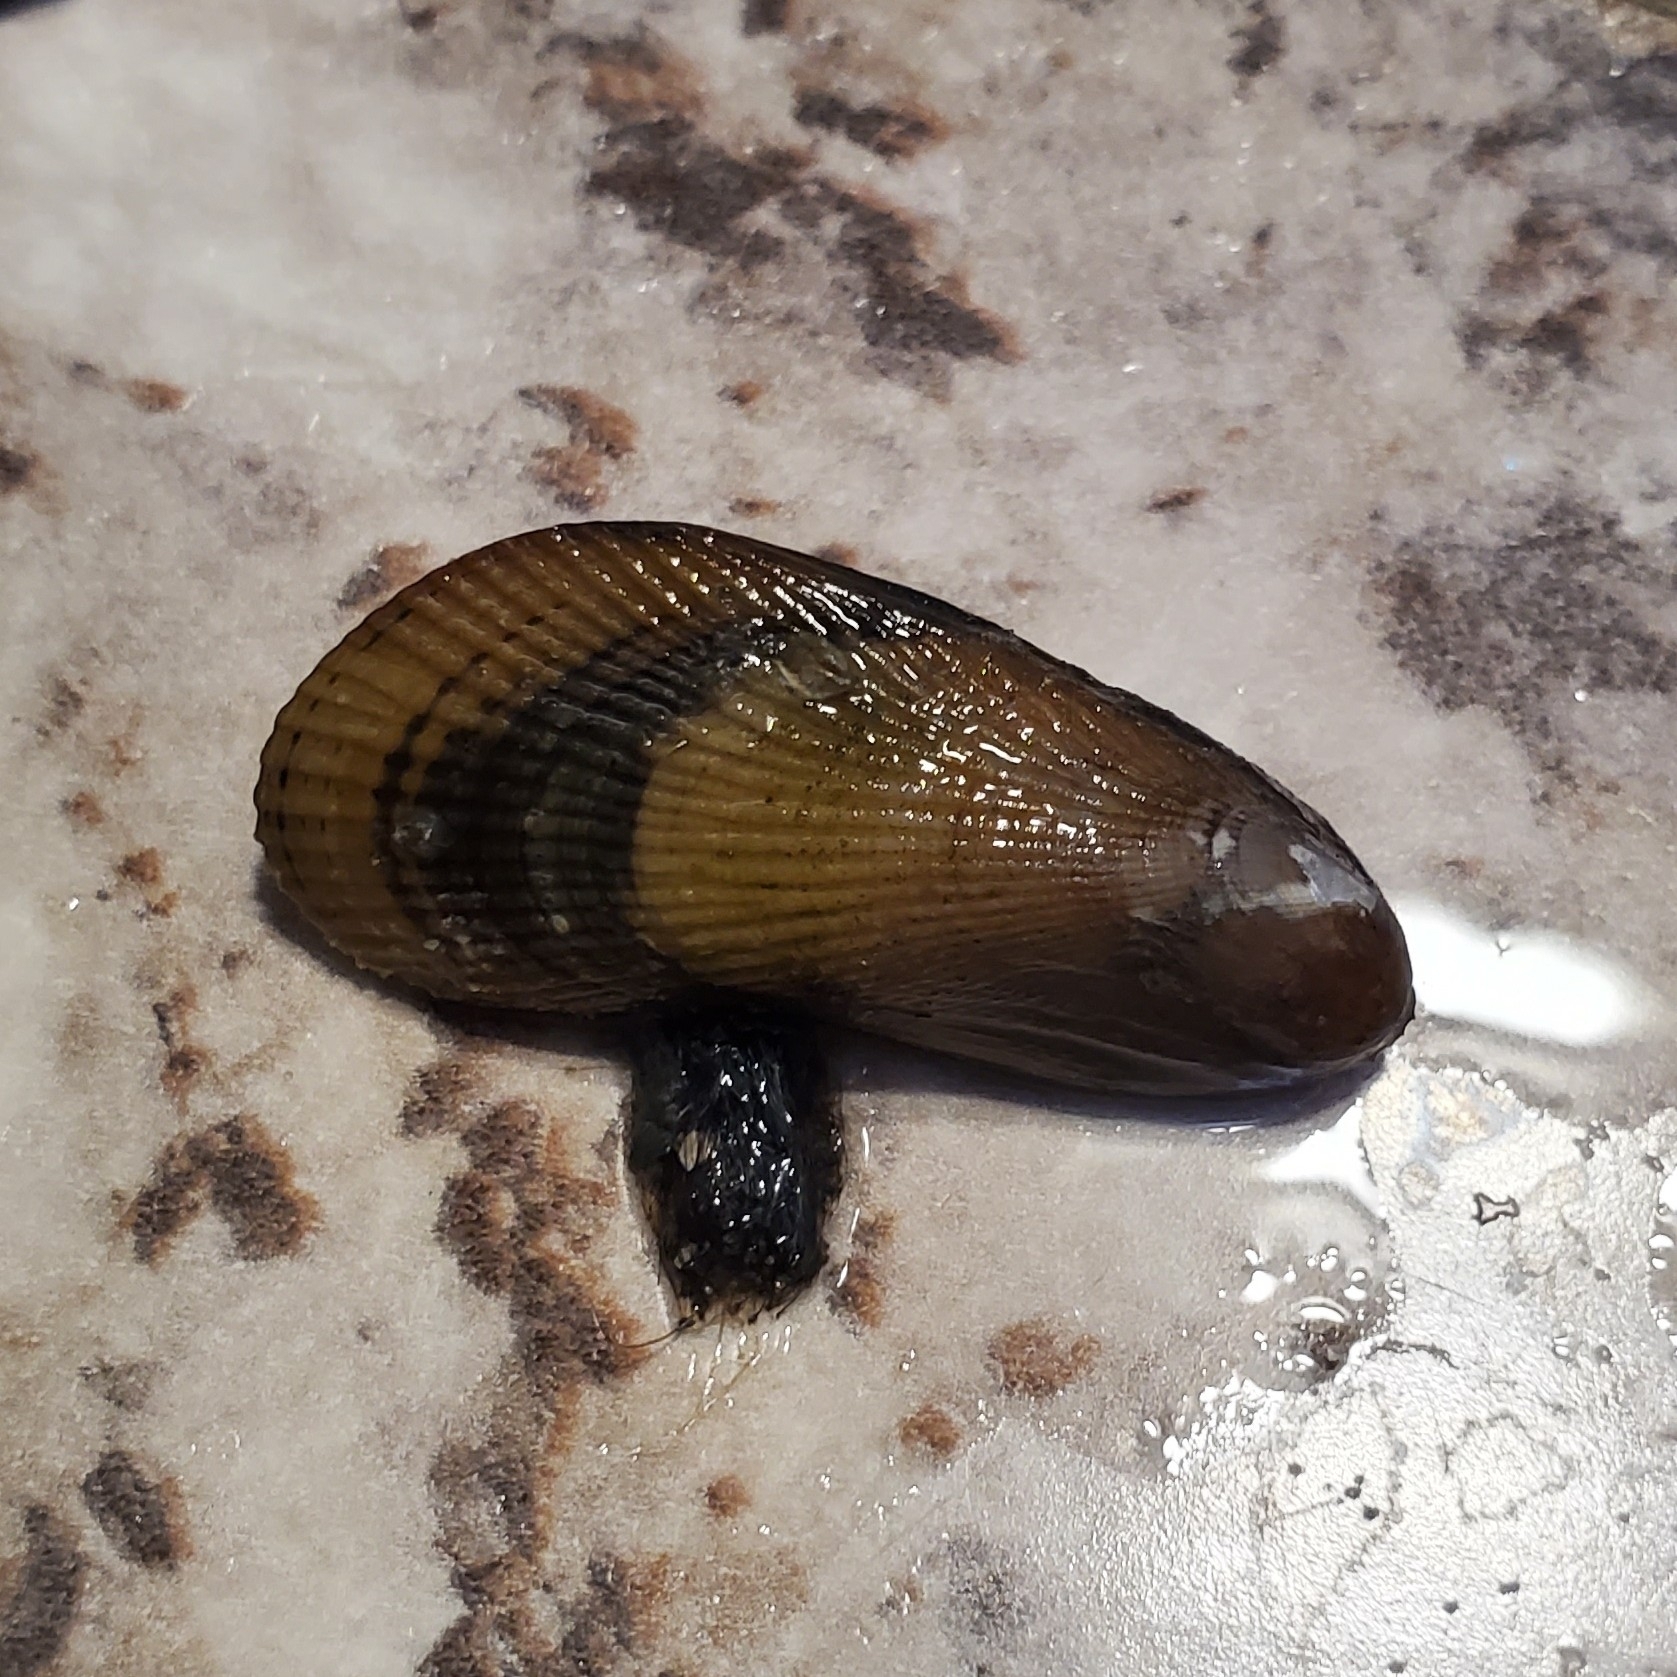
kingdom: Animalia
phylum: Mollusca
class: Bivalvia
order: Mytilida
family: Mytilidae
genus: Geukensia
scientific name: Geukensia demissa
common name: Ribbed mussel
